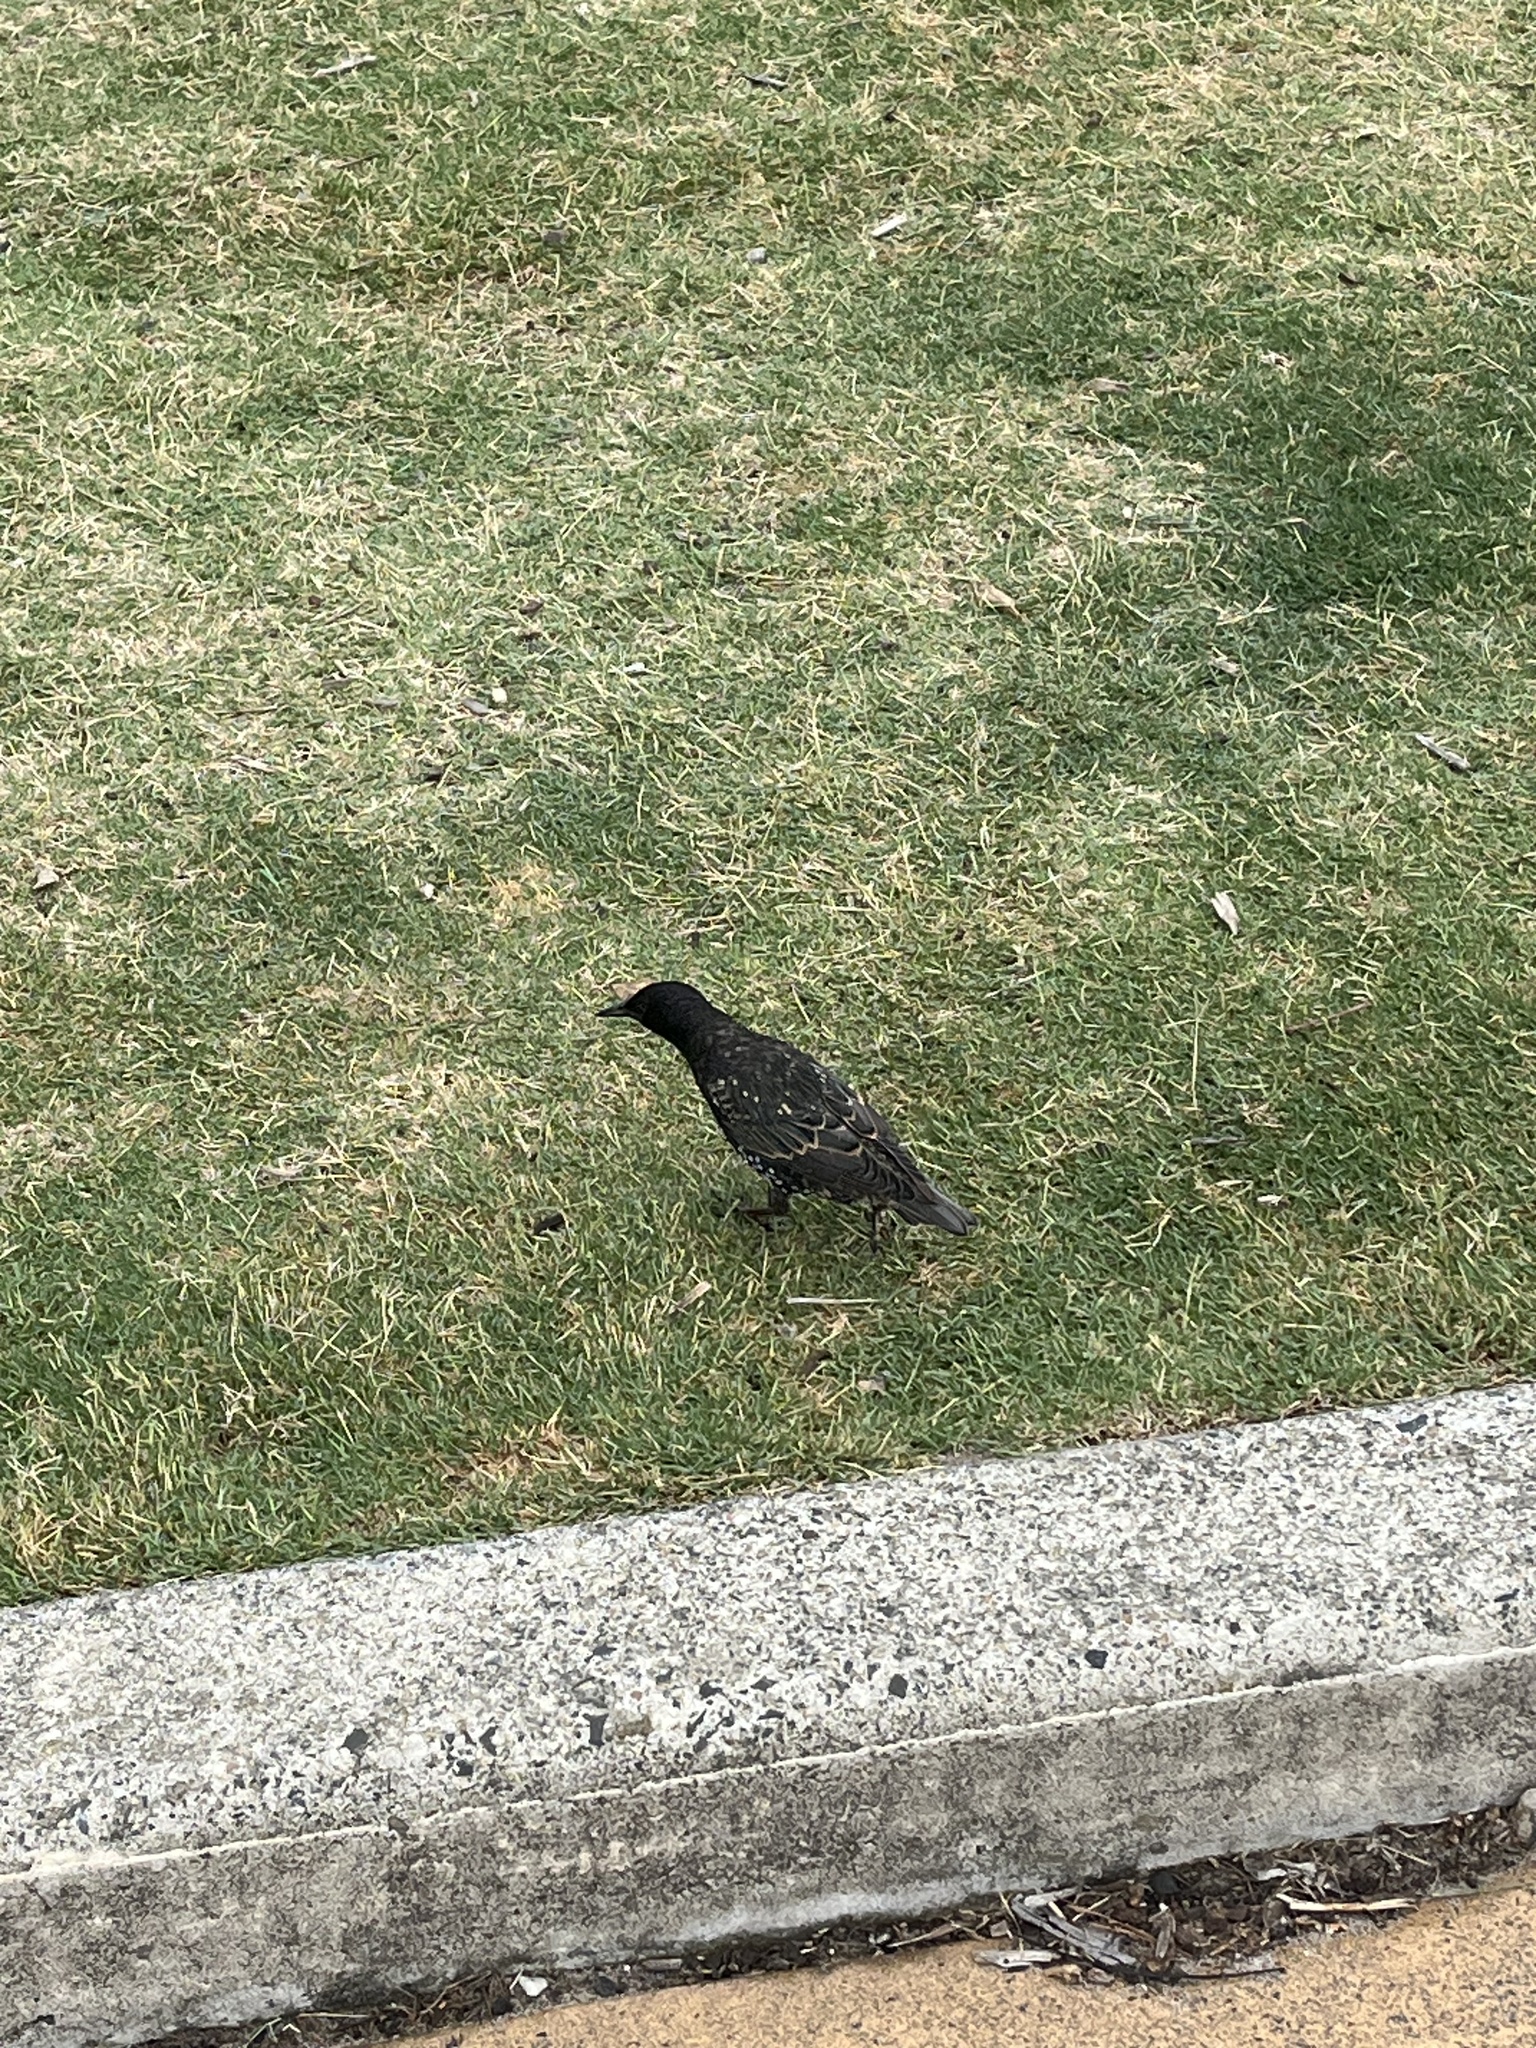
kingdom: Animalia
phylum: Chordata
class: Aves
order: Passeriformes
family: Sturnidae
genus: Sturnus
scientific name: Sturnus vulgaris
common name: Common starling
